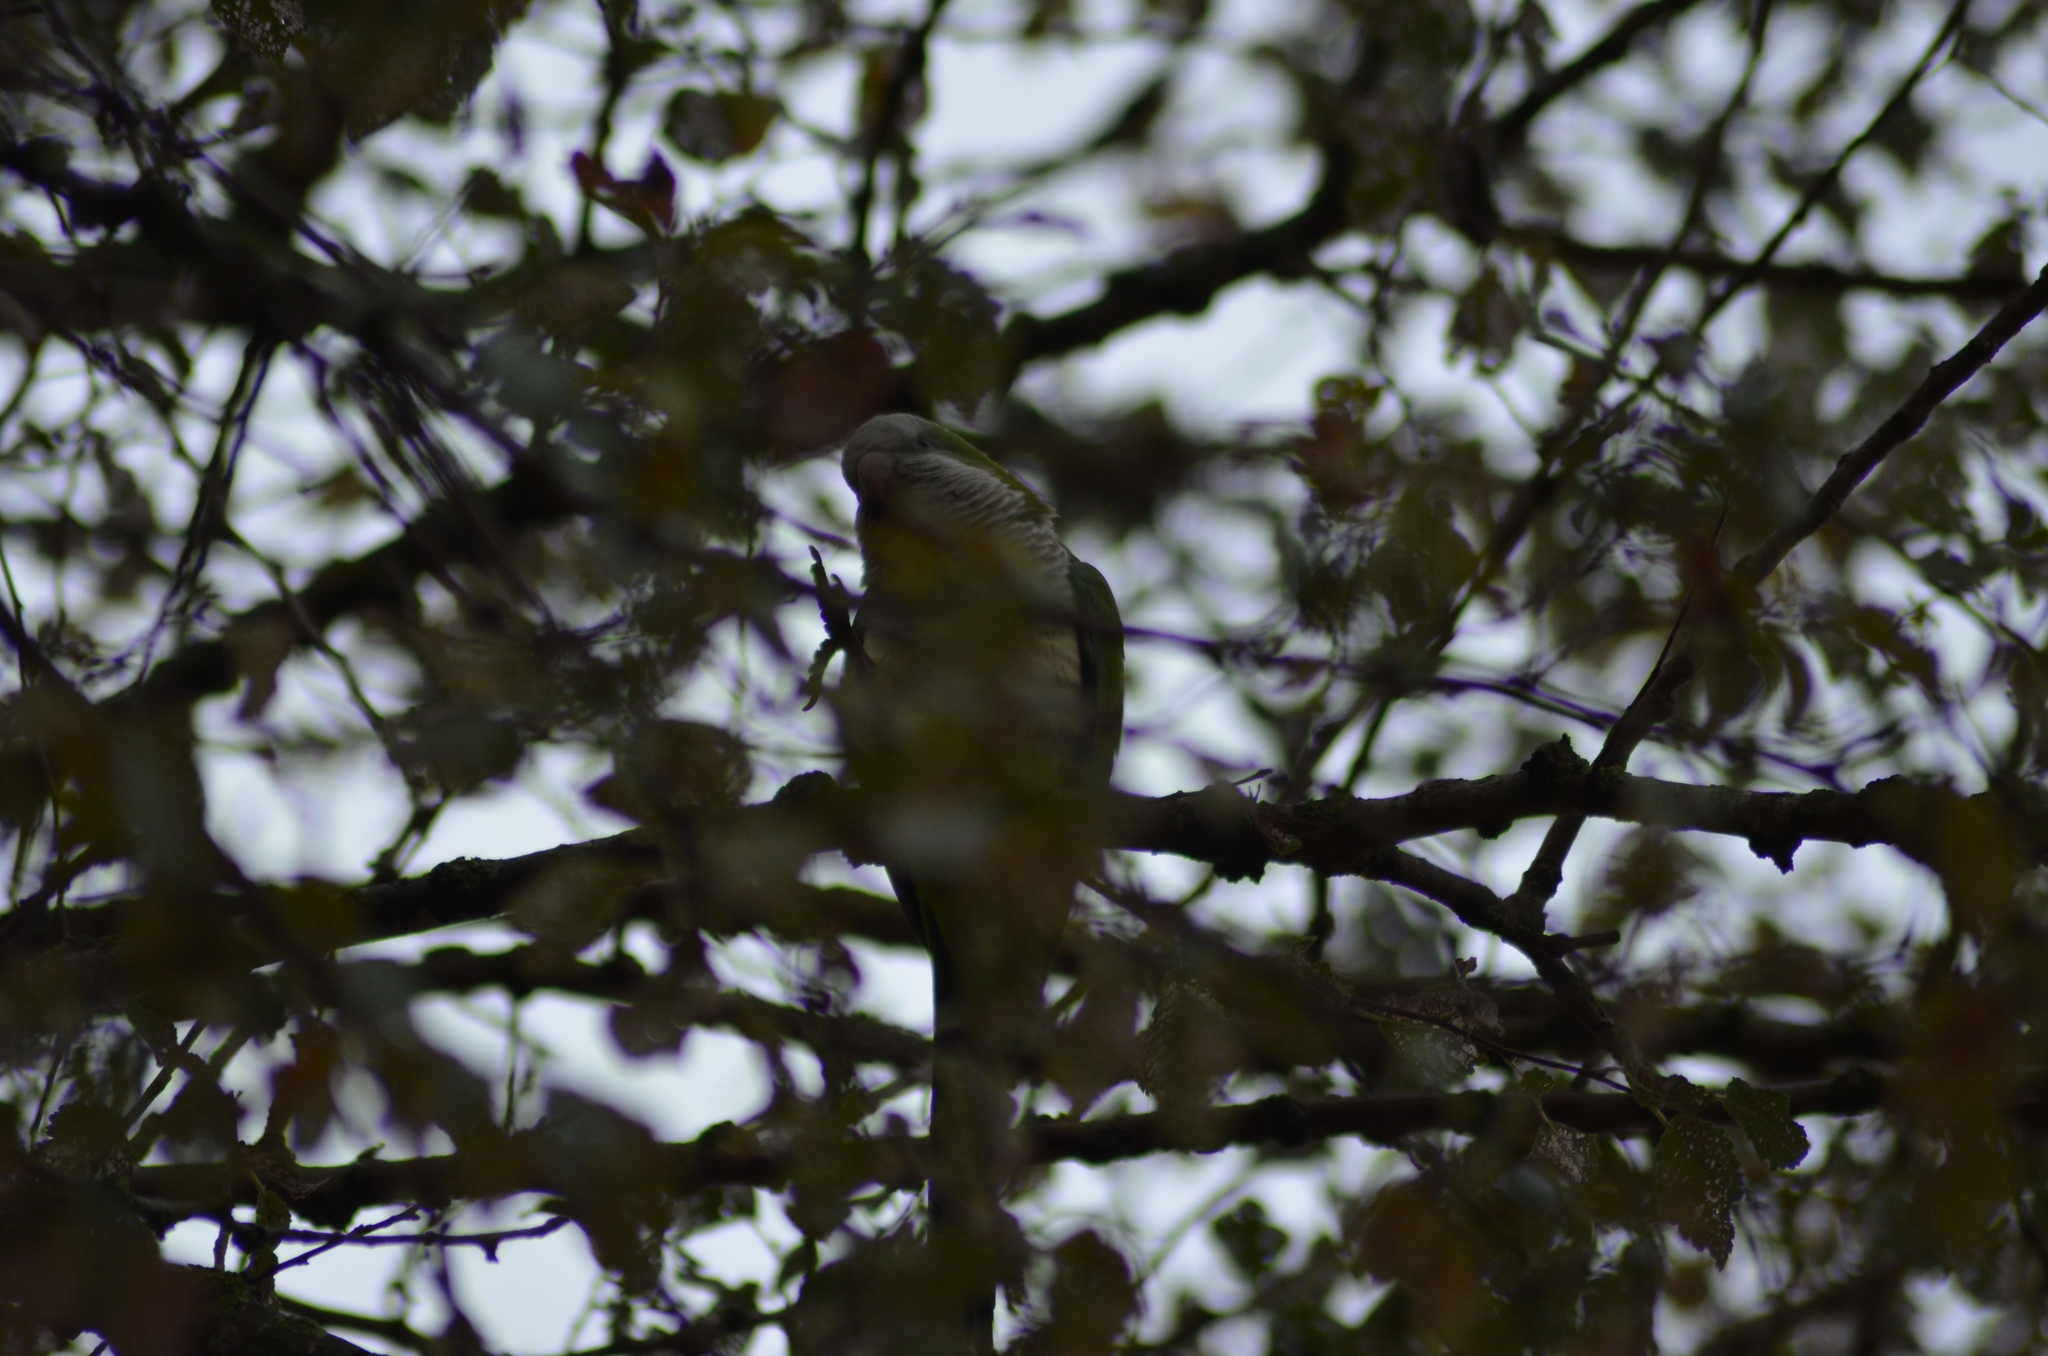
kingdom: Animalia
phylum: Chordata
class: Aves
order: Psittaciformes
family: Psittacidae
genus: Myiopsitta
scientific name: Myiopsitta monachus
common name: Monk parakeet
